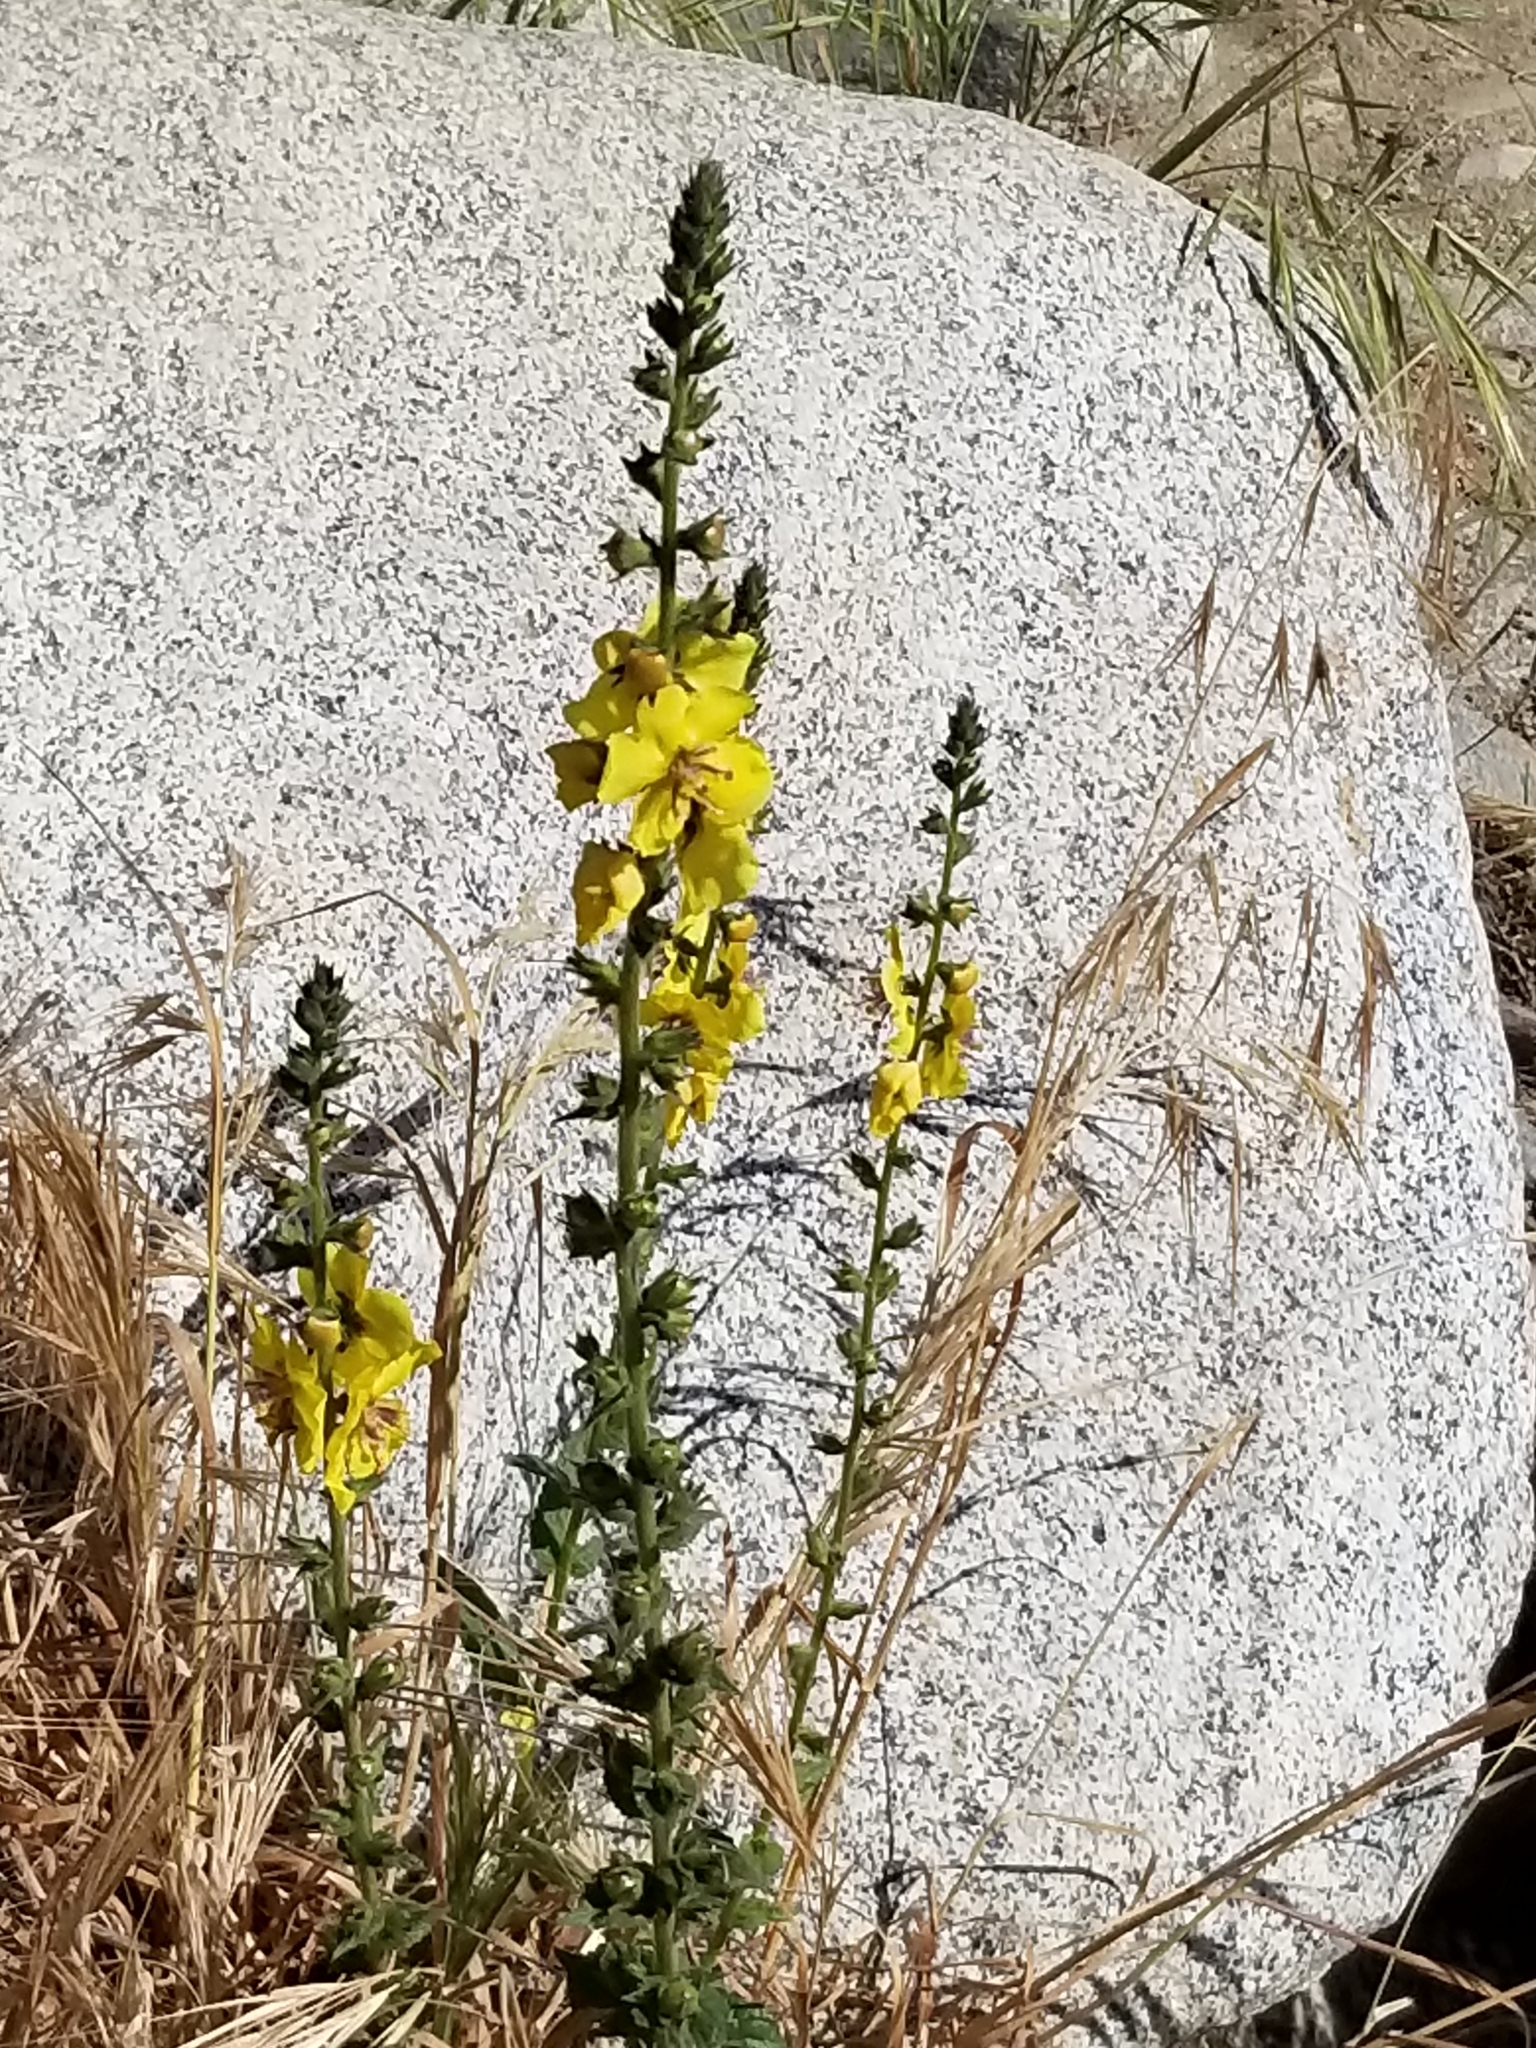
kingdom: Plantae
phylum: Tracheophyta
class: Magnoliopsida
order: Lamiales
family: Scrophulariaceae
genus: Verbascum
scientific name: Verbascum virgatum
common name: Twiggy mullein
